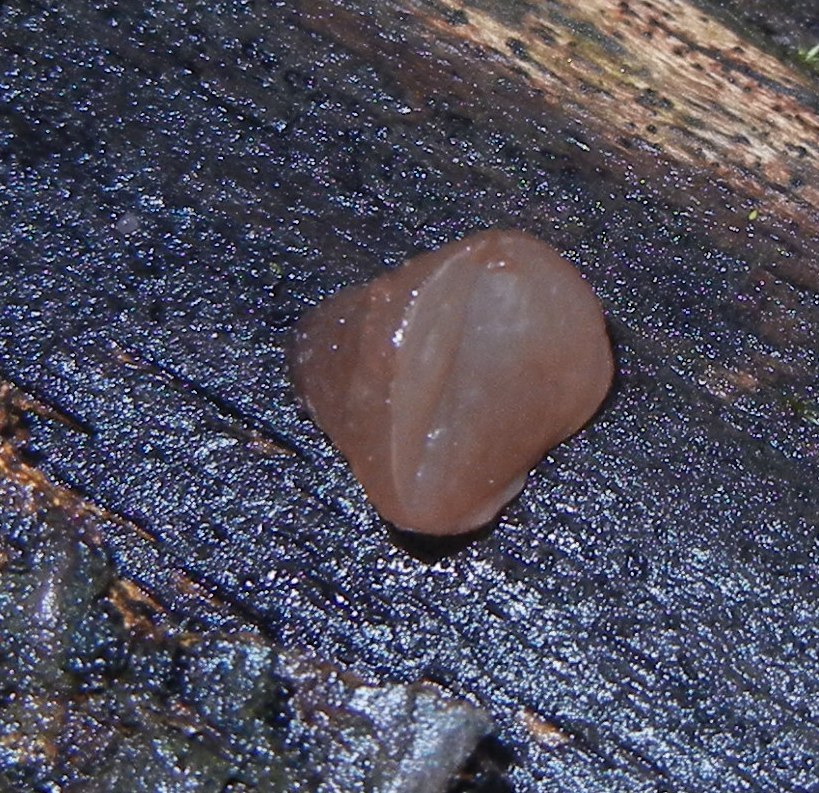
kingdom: Fungi
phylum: Ascomycota
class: Leotiomycetes
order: Helotiales
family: Gelatinodiscaceae
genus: Neobulgaria
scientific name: Neobulgaria pura
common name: Beech jelly-disc
